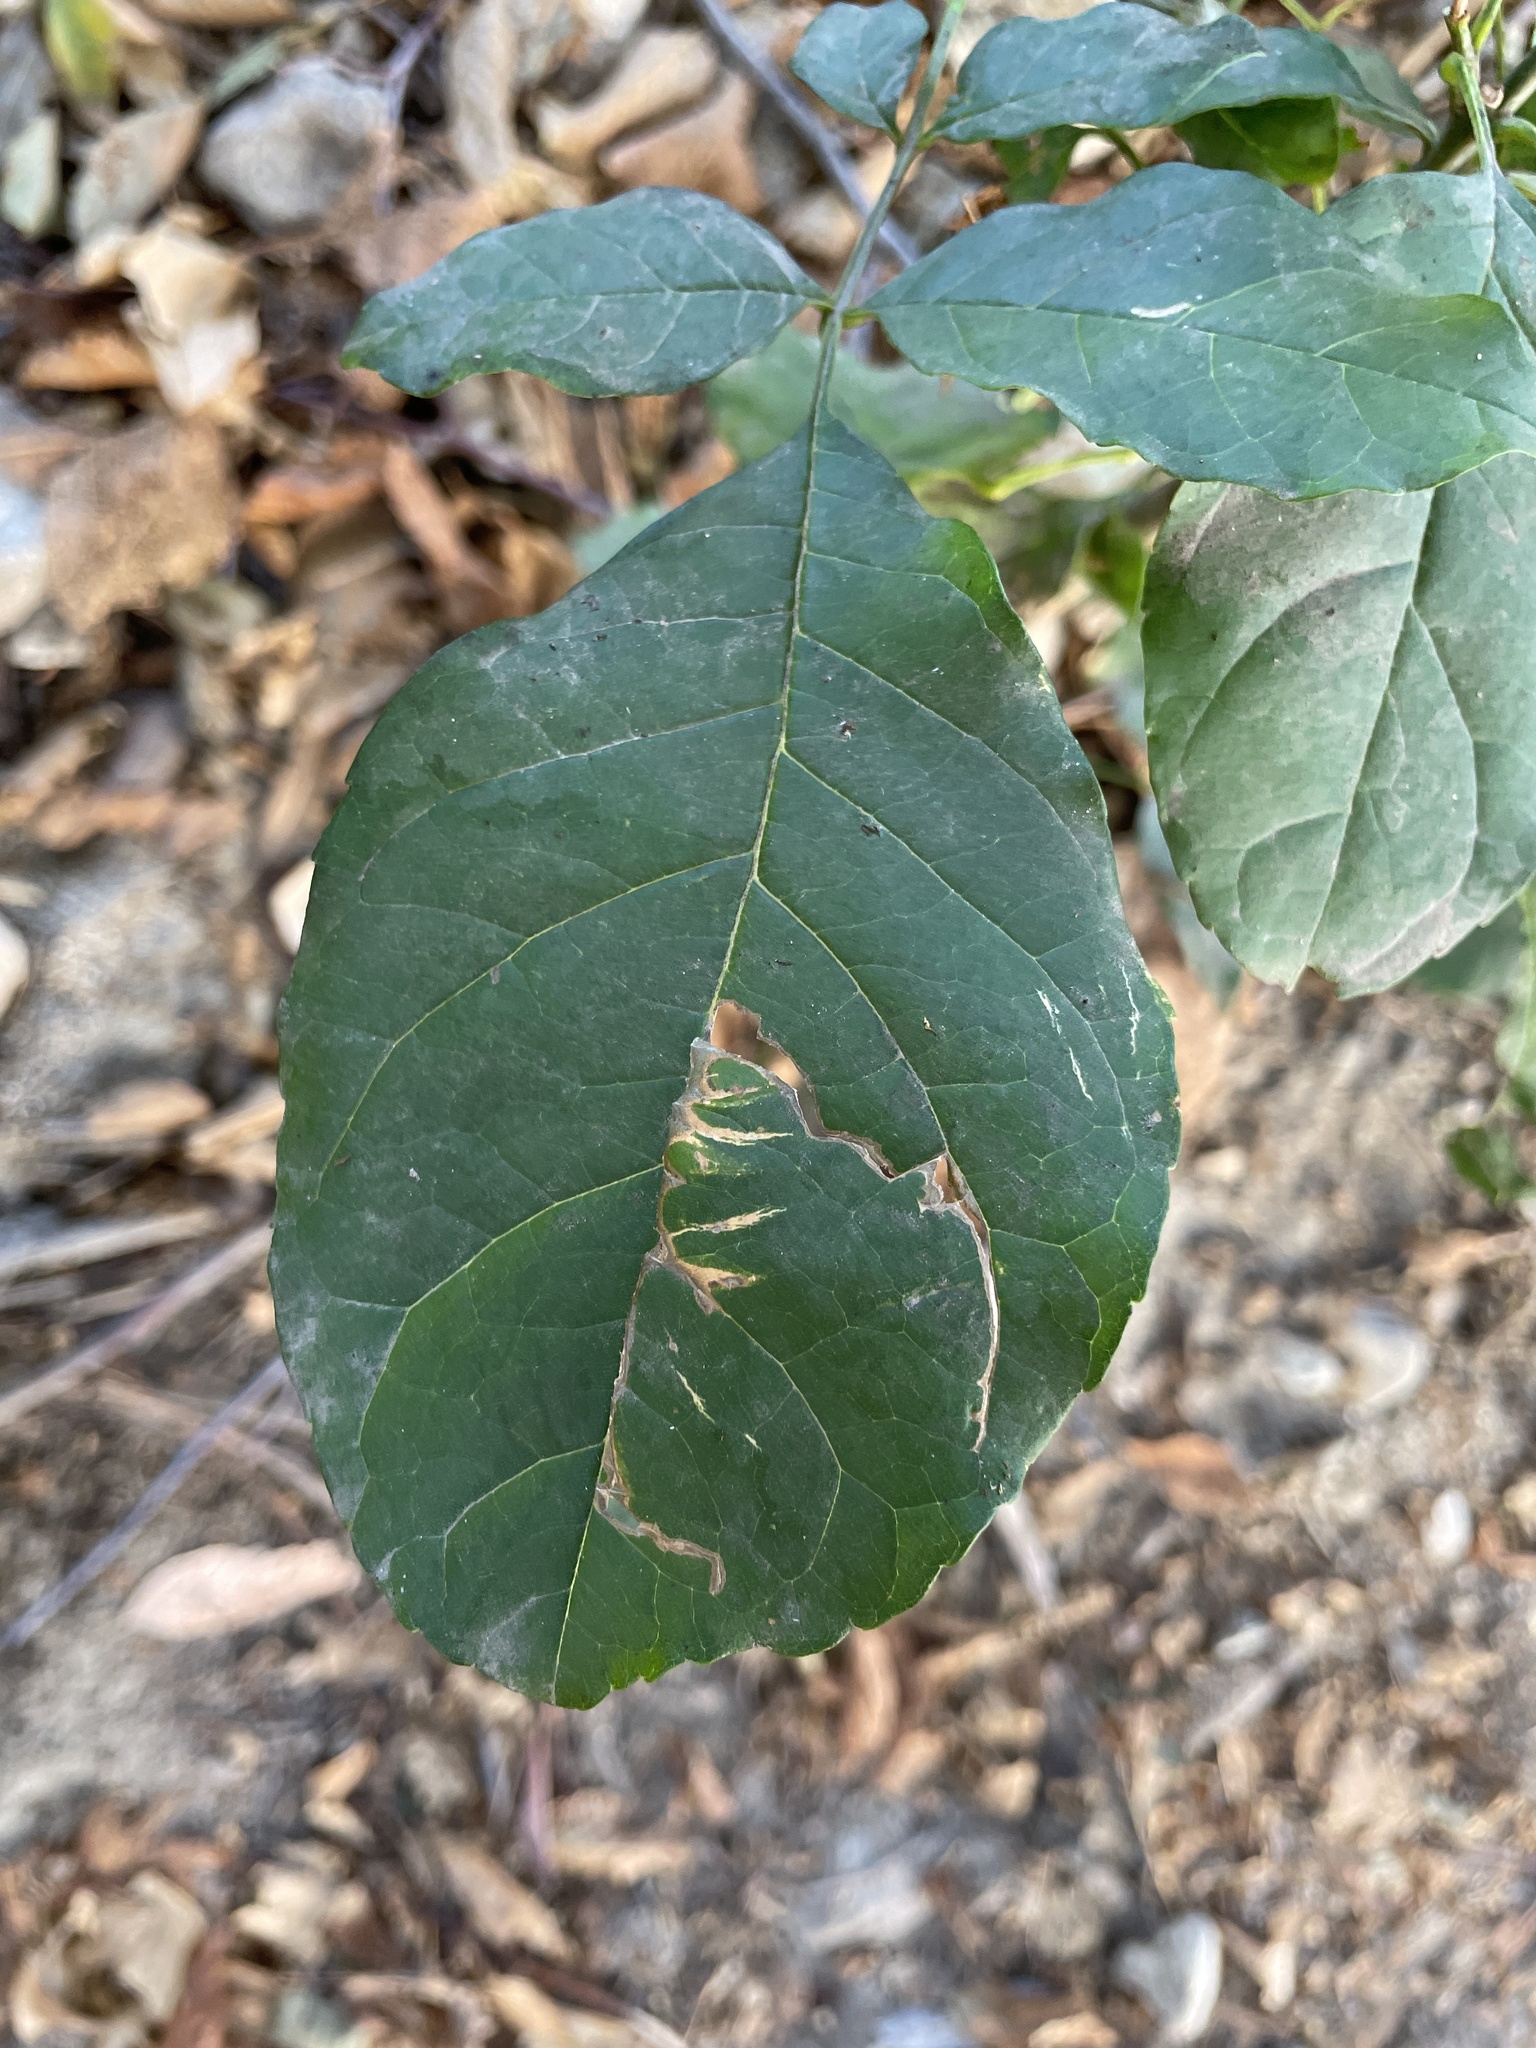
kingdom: Plantae
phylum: Tracheophyta
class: Magnoliopsida
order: Lamiales
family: Oleaceae
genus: Fraxinus
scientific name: Fraxinus uhdei
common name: Shamel ash
